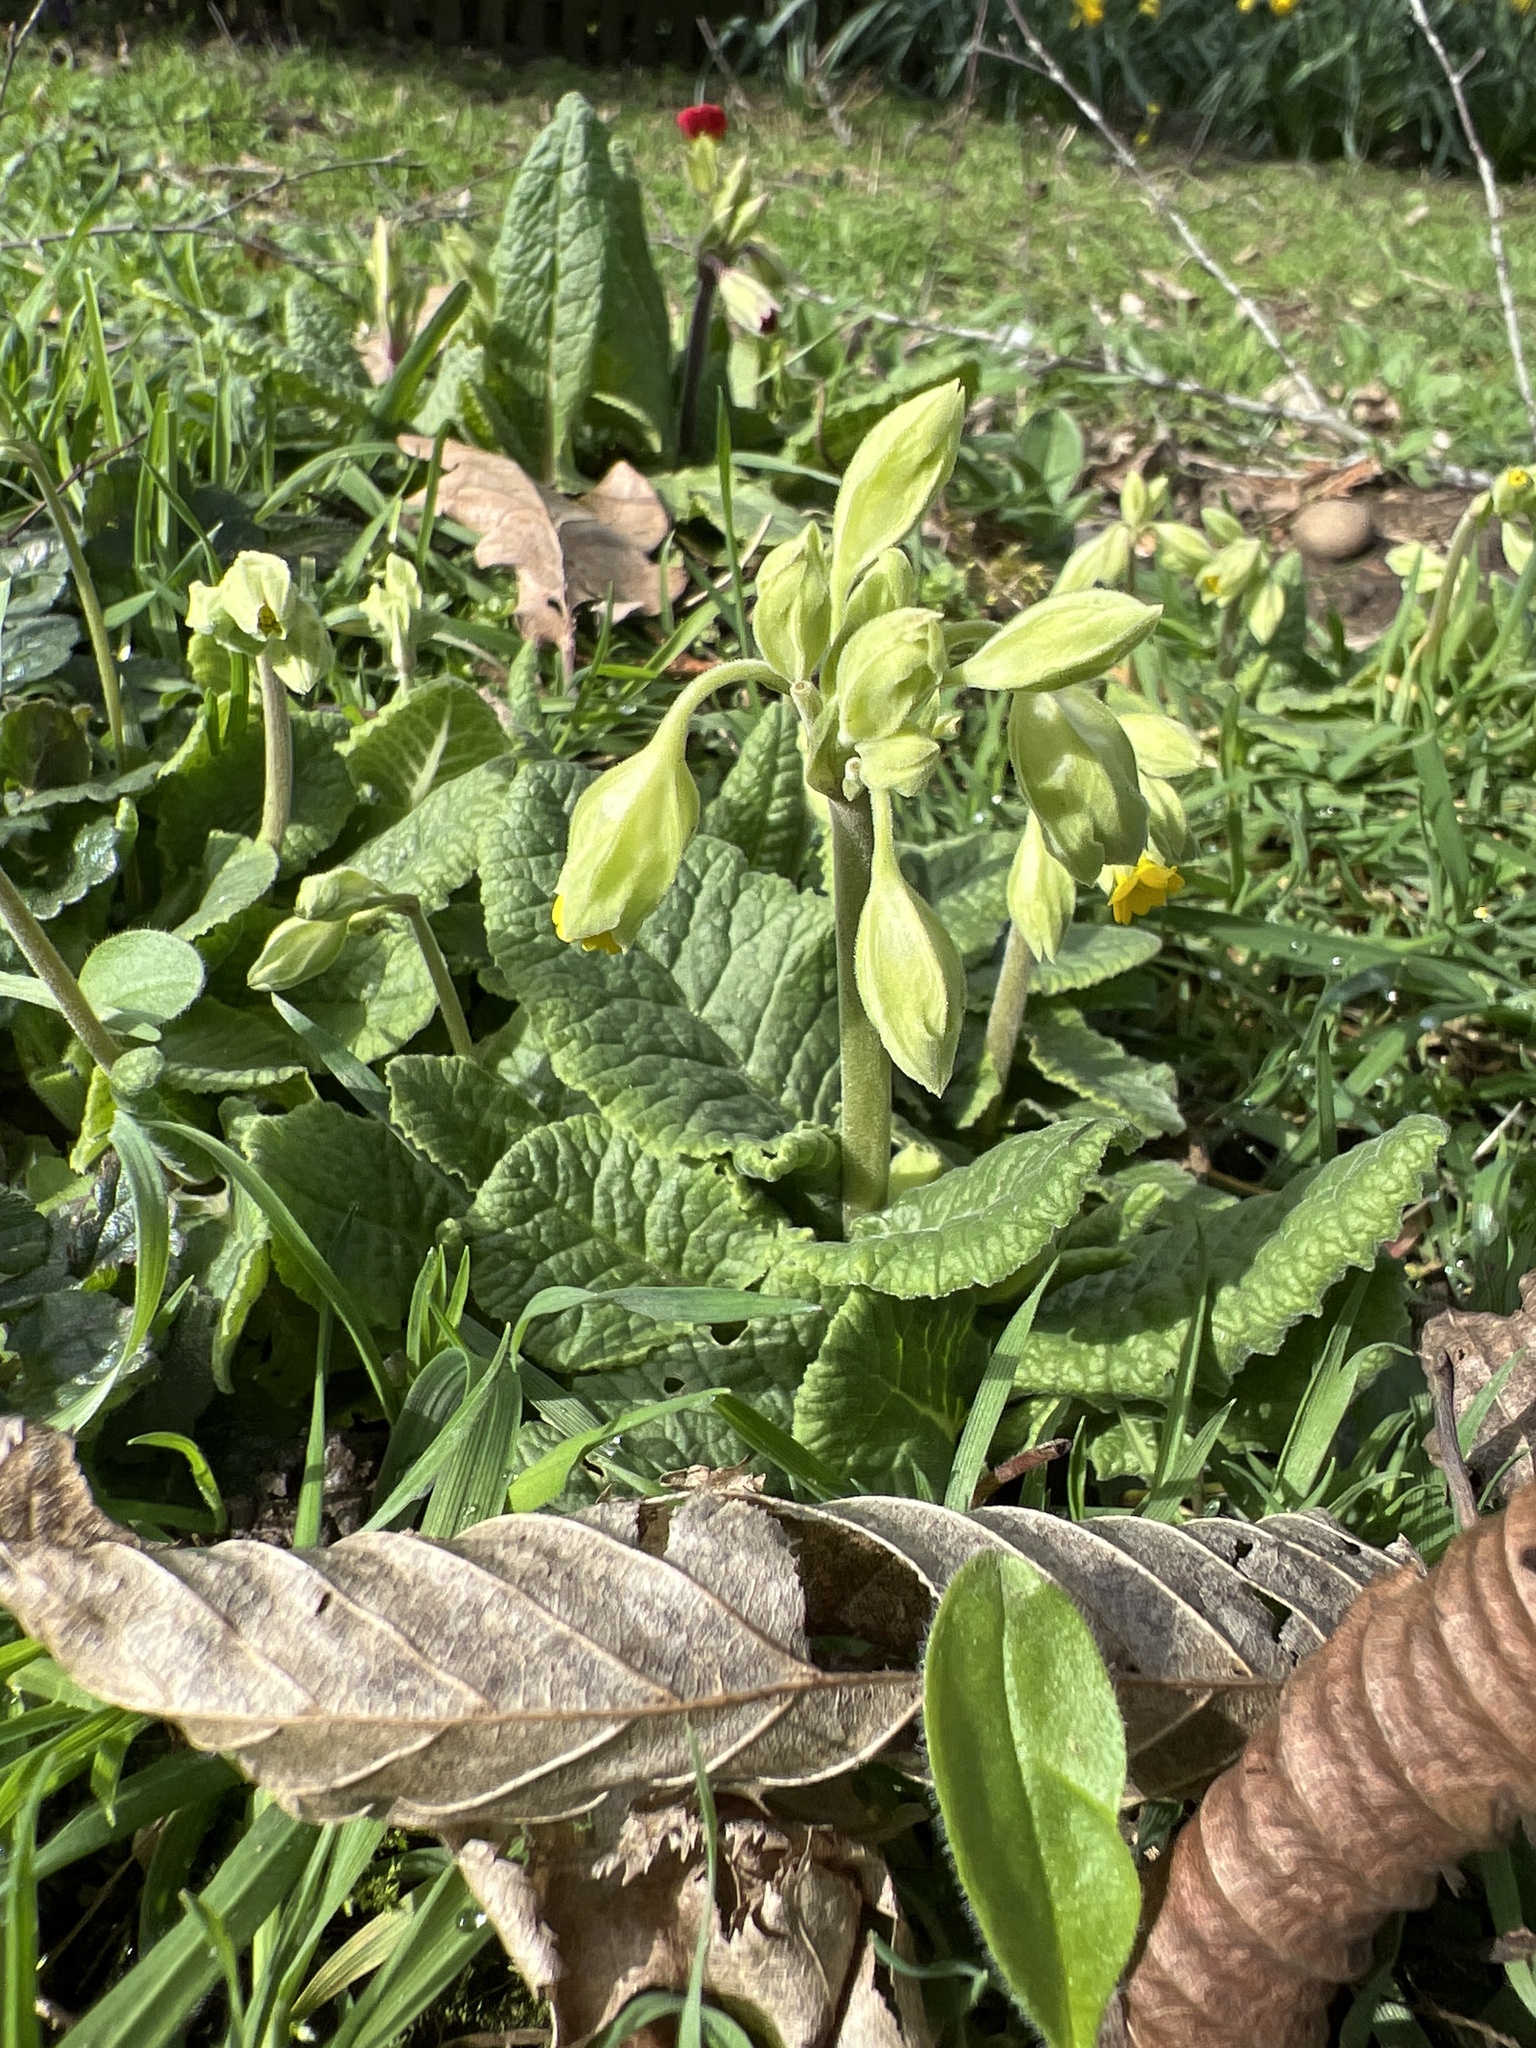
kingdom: Plantae
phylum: Tracheophyta
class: Magnoliopsida
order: Ericales
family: Primulaceae
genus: Primula
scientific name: Primula veris
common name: Cowslip
